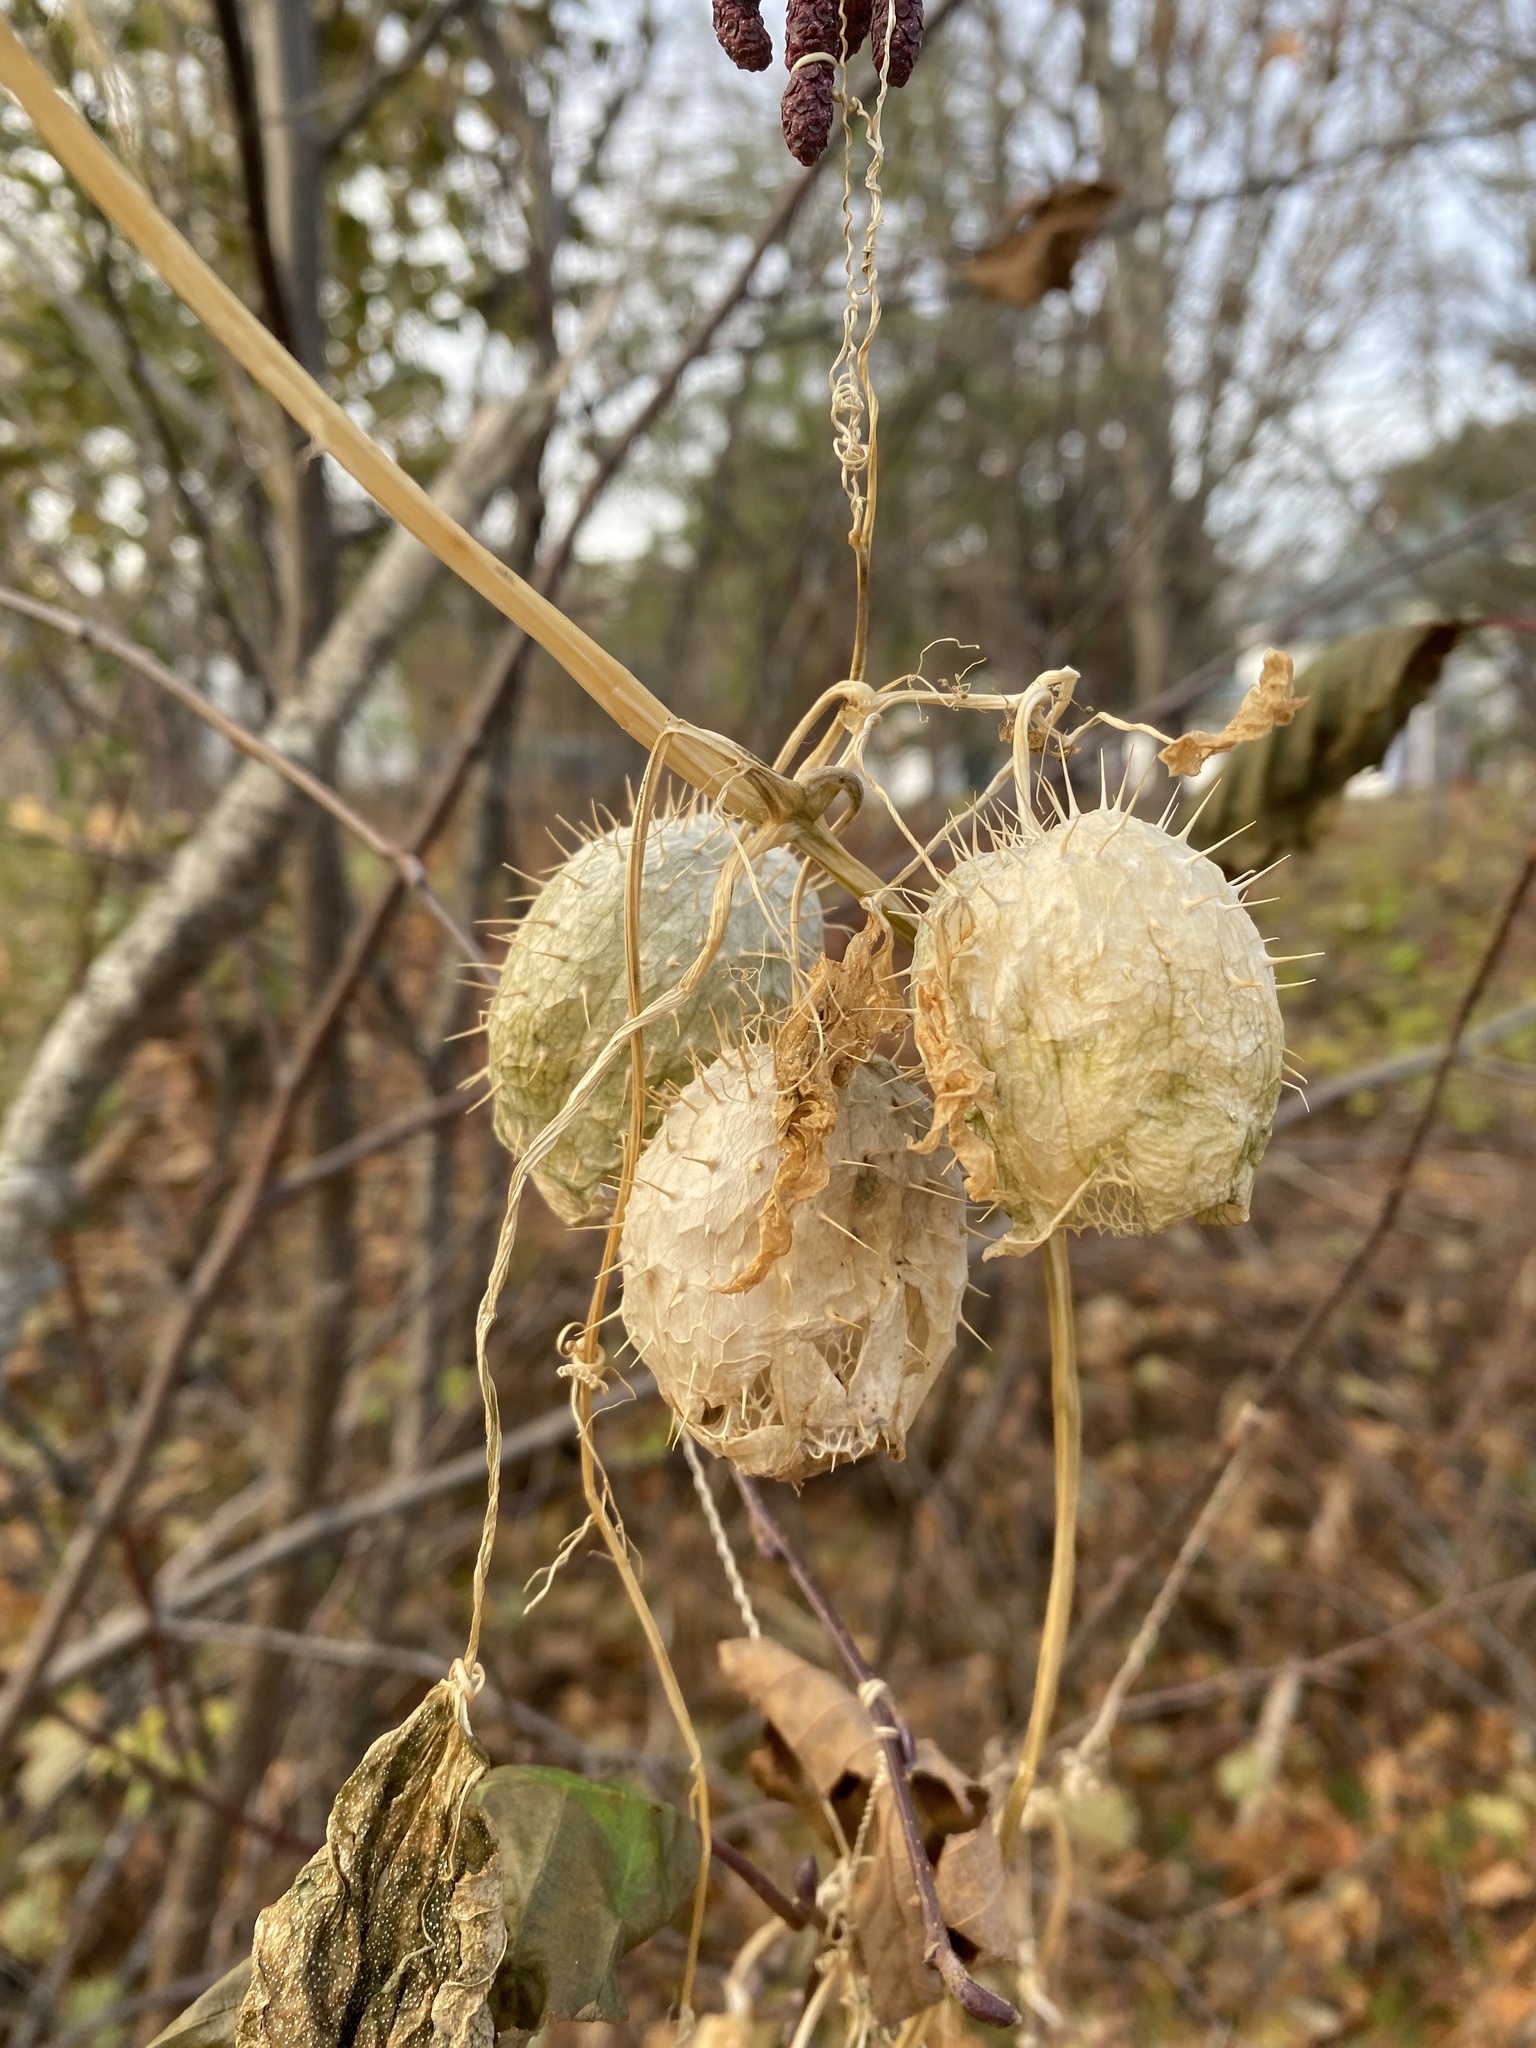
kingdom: Plantae
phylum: Tracheophyta
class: Magnoliopsida
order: Cucurbitales
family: Cucurbitaceae
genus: Echinocystis
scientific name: Echinocystis lobata
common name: Wild cucumber
